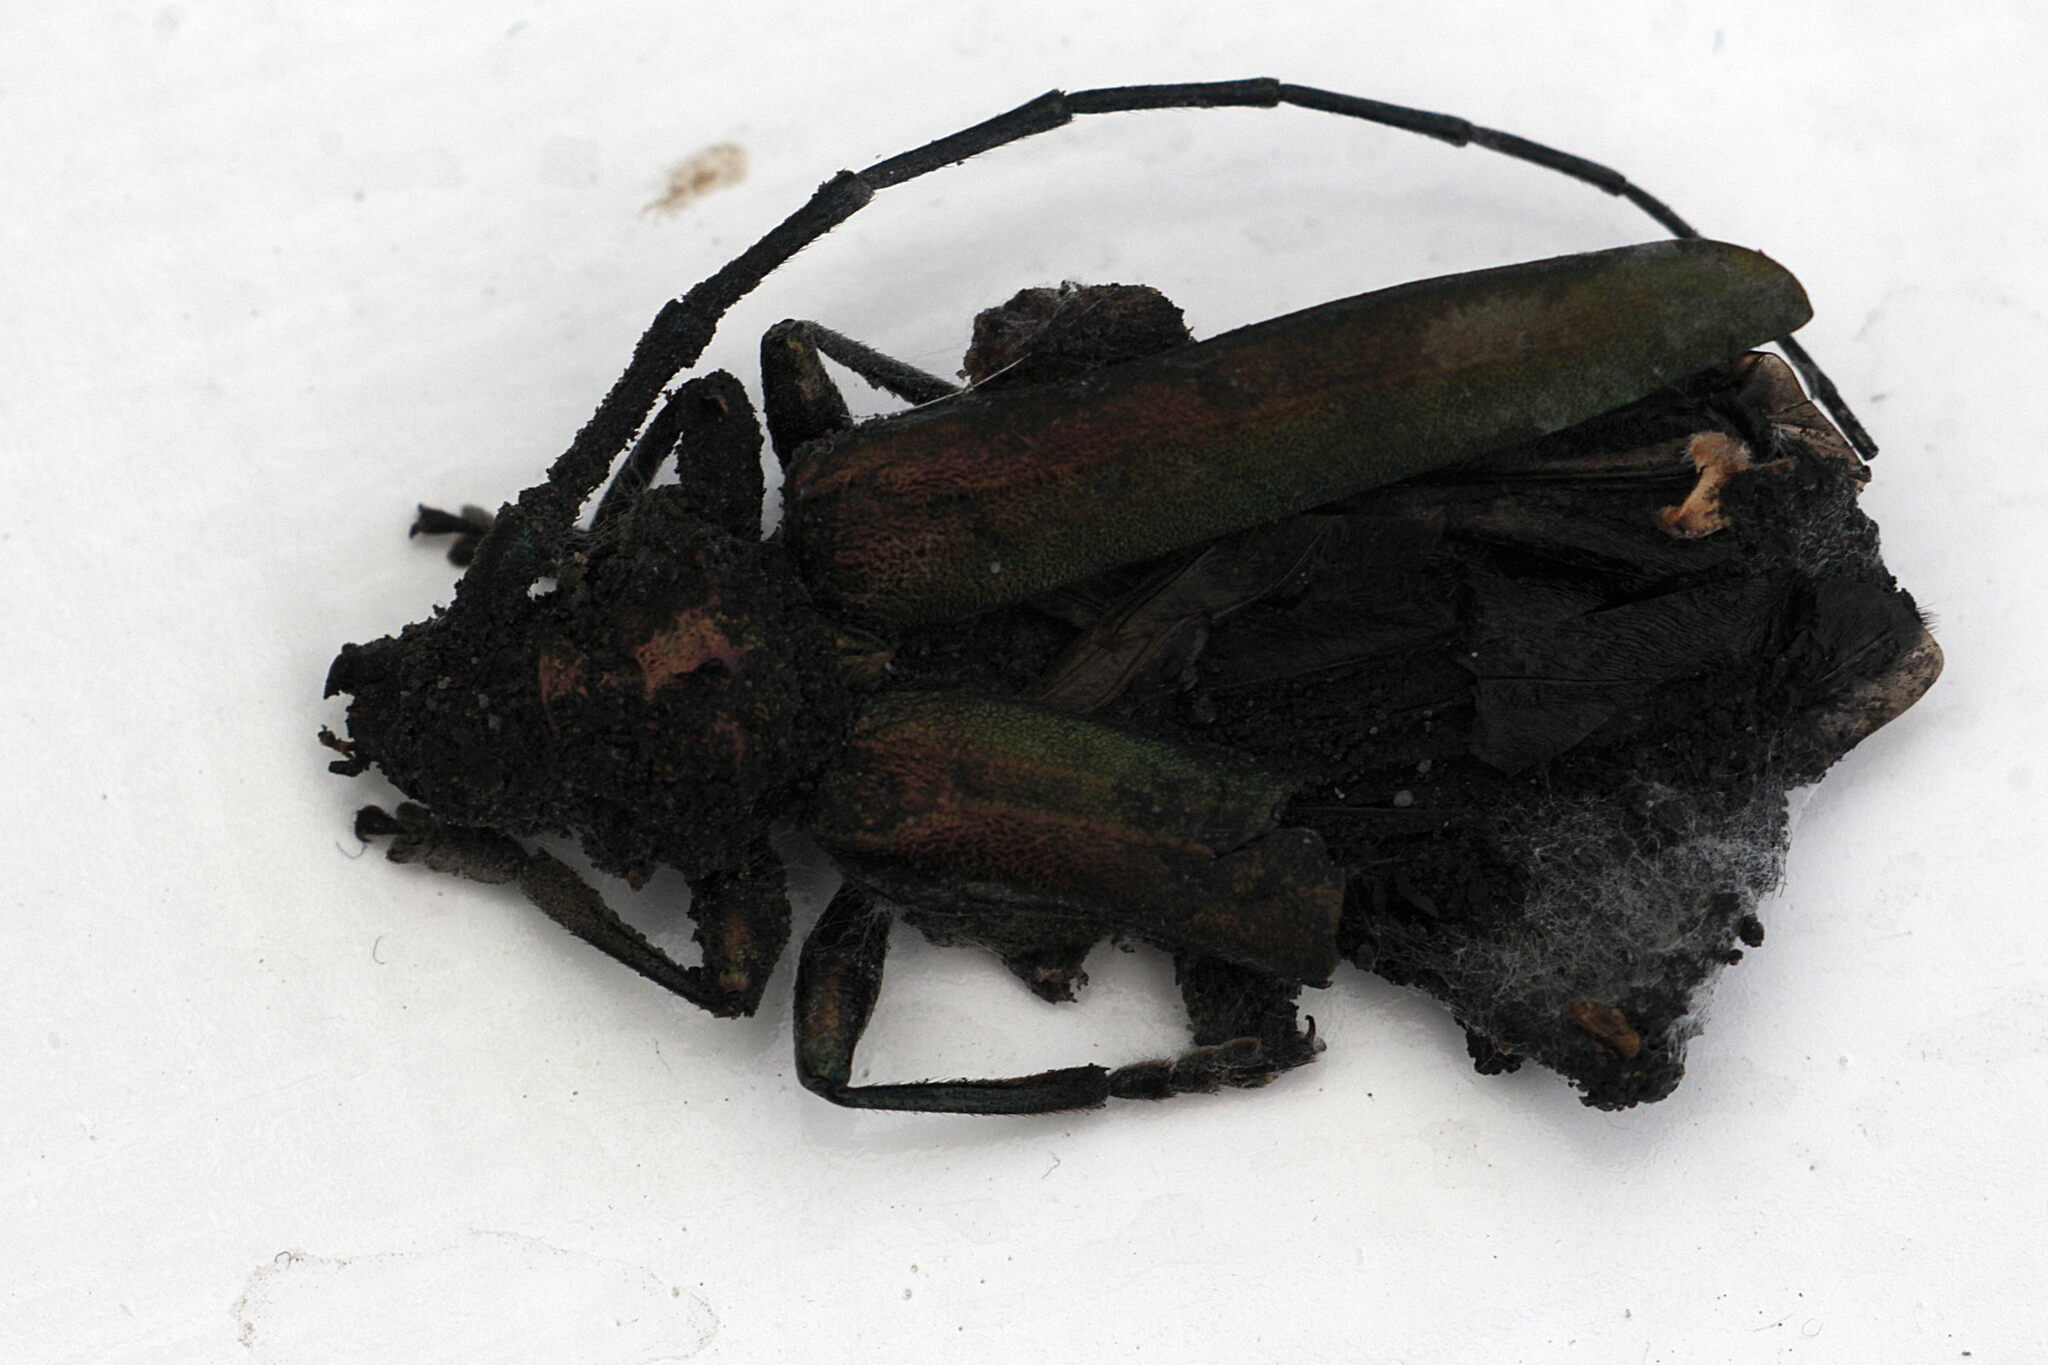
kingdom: Animalia
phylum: Arthropoda
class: Insecta
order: Coleoptera
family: Cerambycidae
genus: Aromia
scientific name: Aromia moschata
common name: Musk beetle
